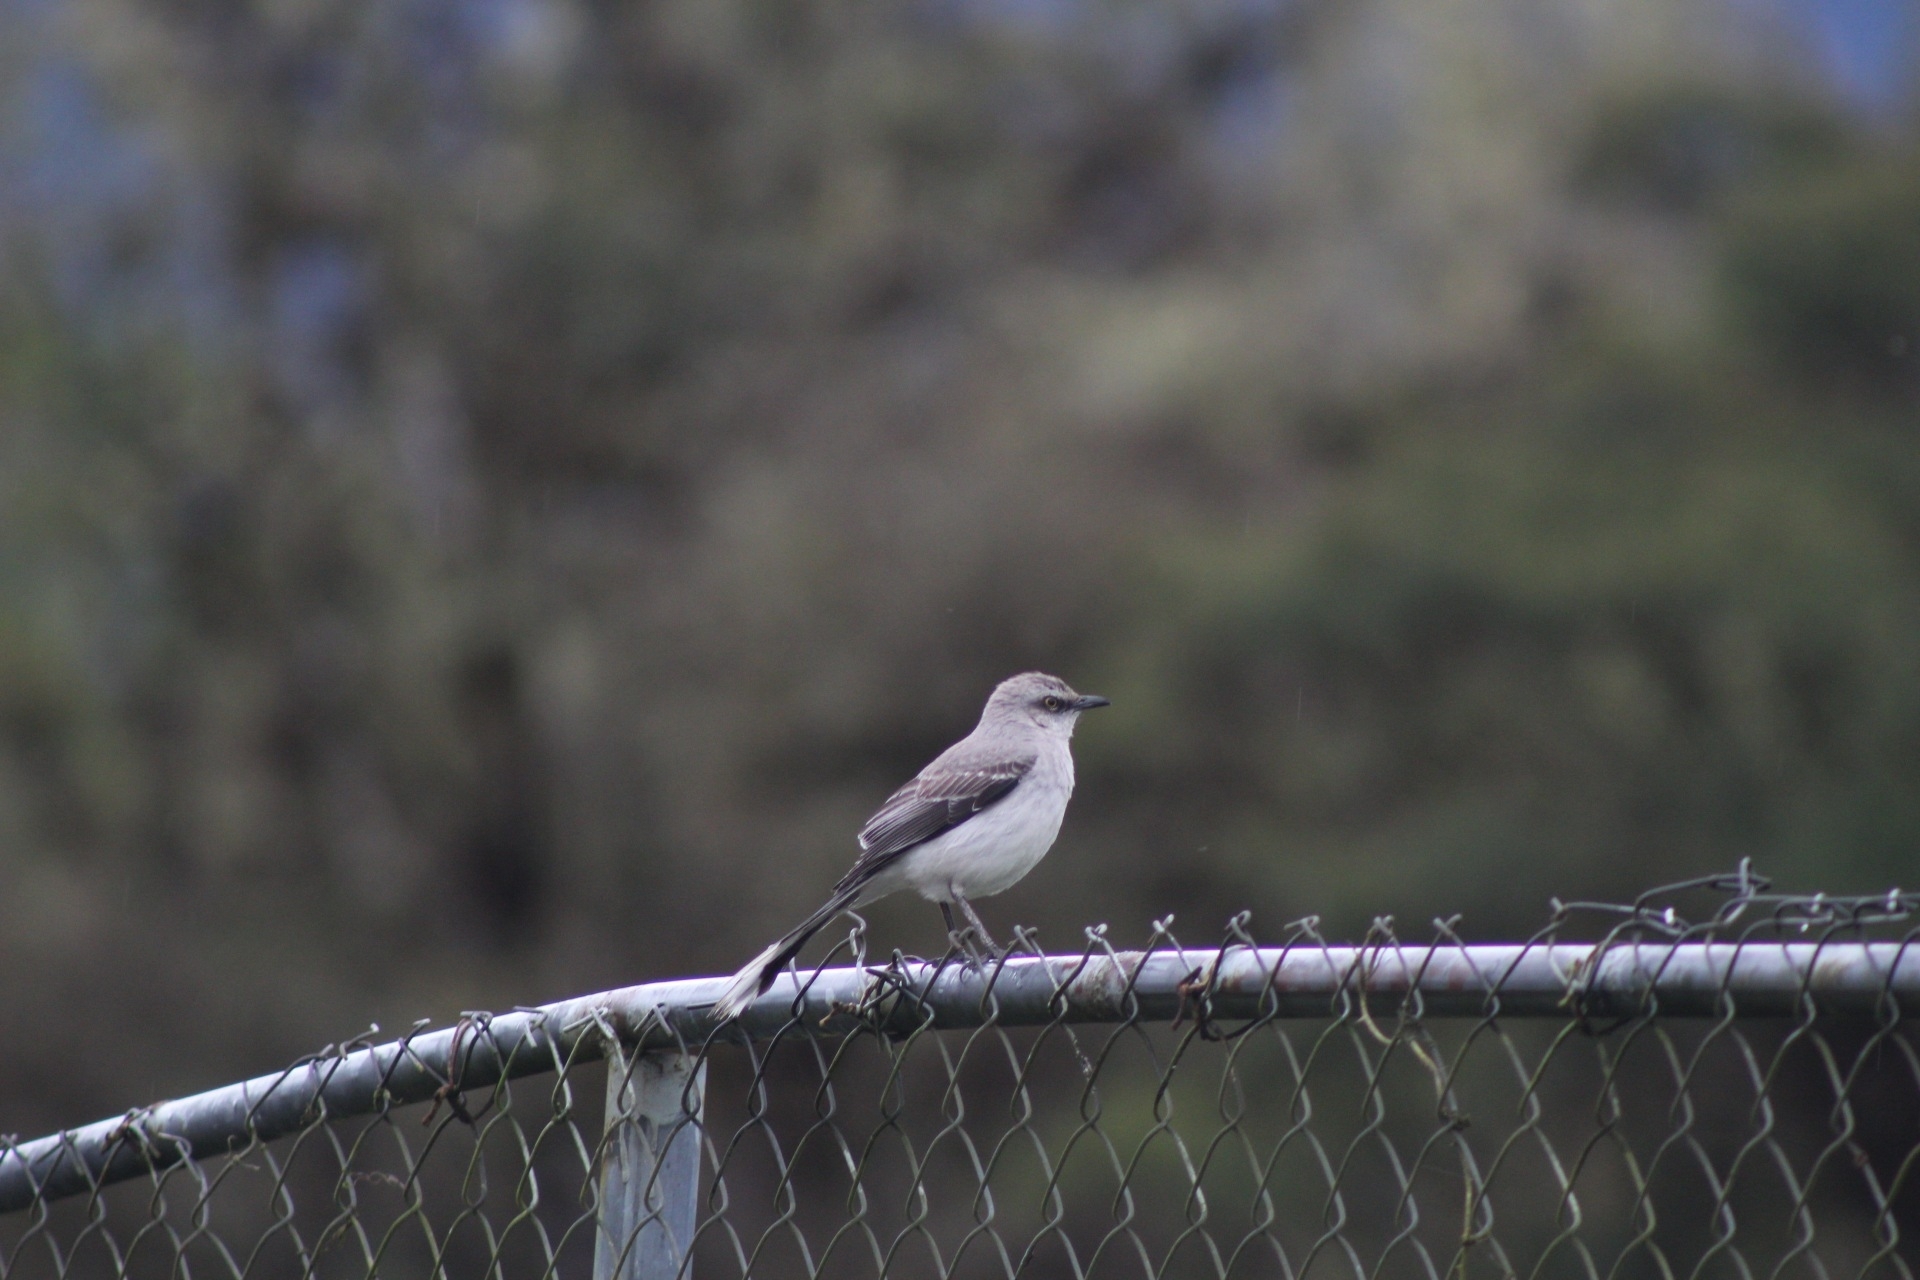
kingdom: Animalia
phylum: Chordata
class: Aves
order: Passeriformes
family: Mimidae
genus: Mimus
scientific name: Mimus gilvus
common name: Tropical mockingbird
